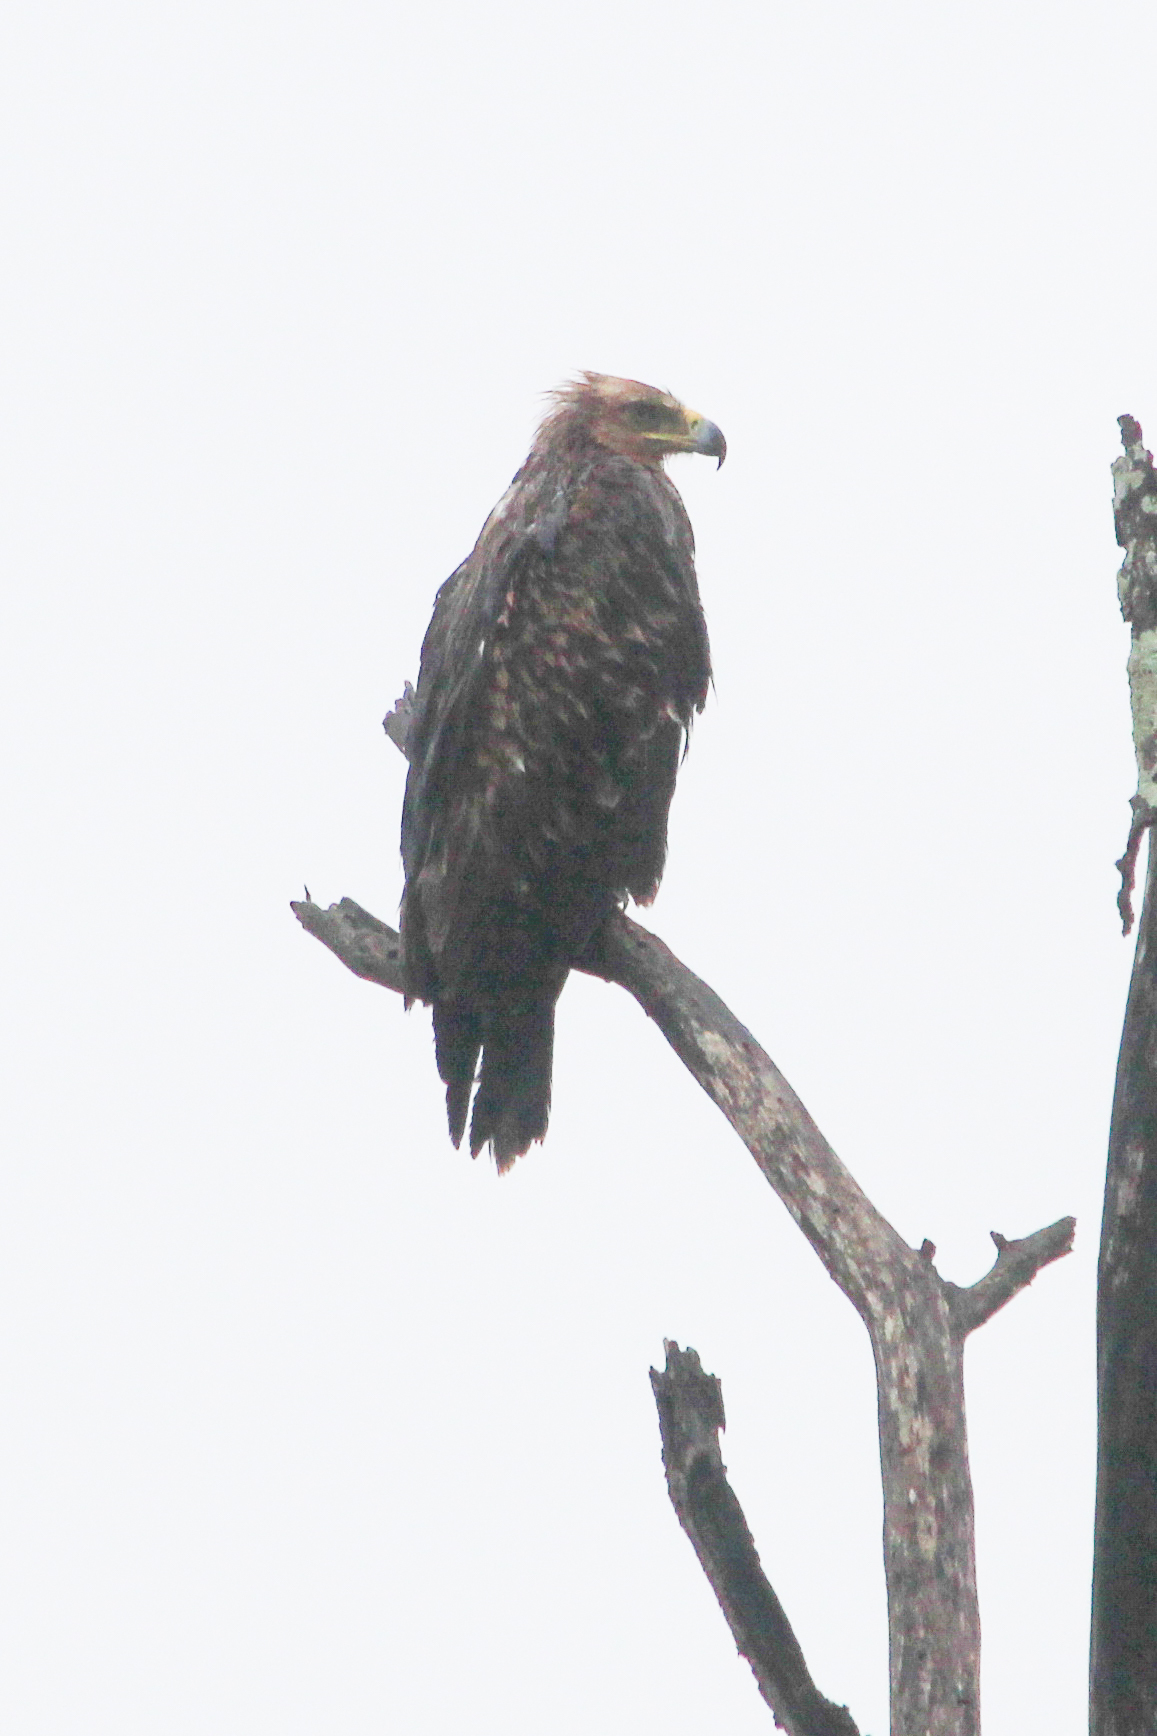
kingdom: Animalia
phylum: Chordata
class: Aves
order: Accipitriformes
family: Accipitridae
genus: Aquila
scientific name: Aquila rapax
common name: Tawny eagle
